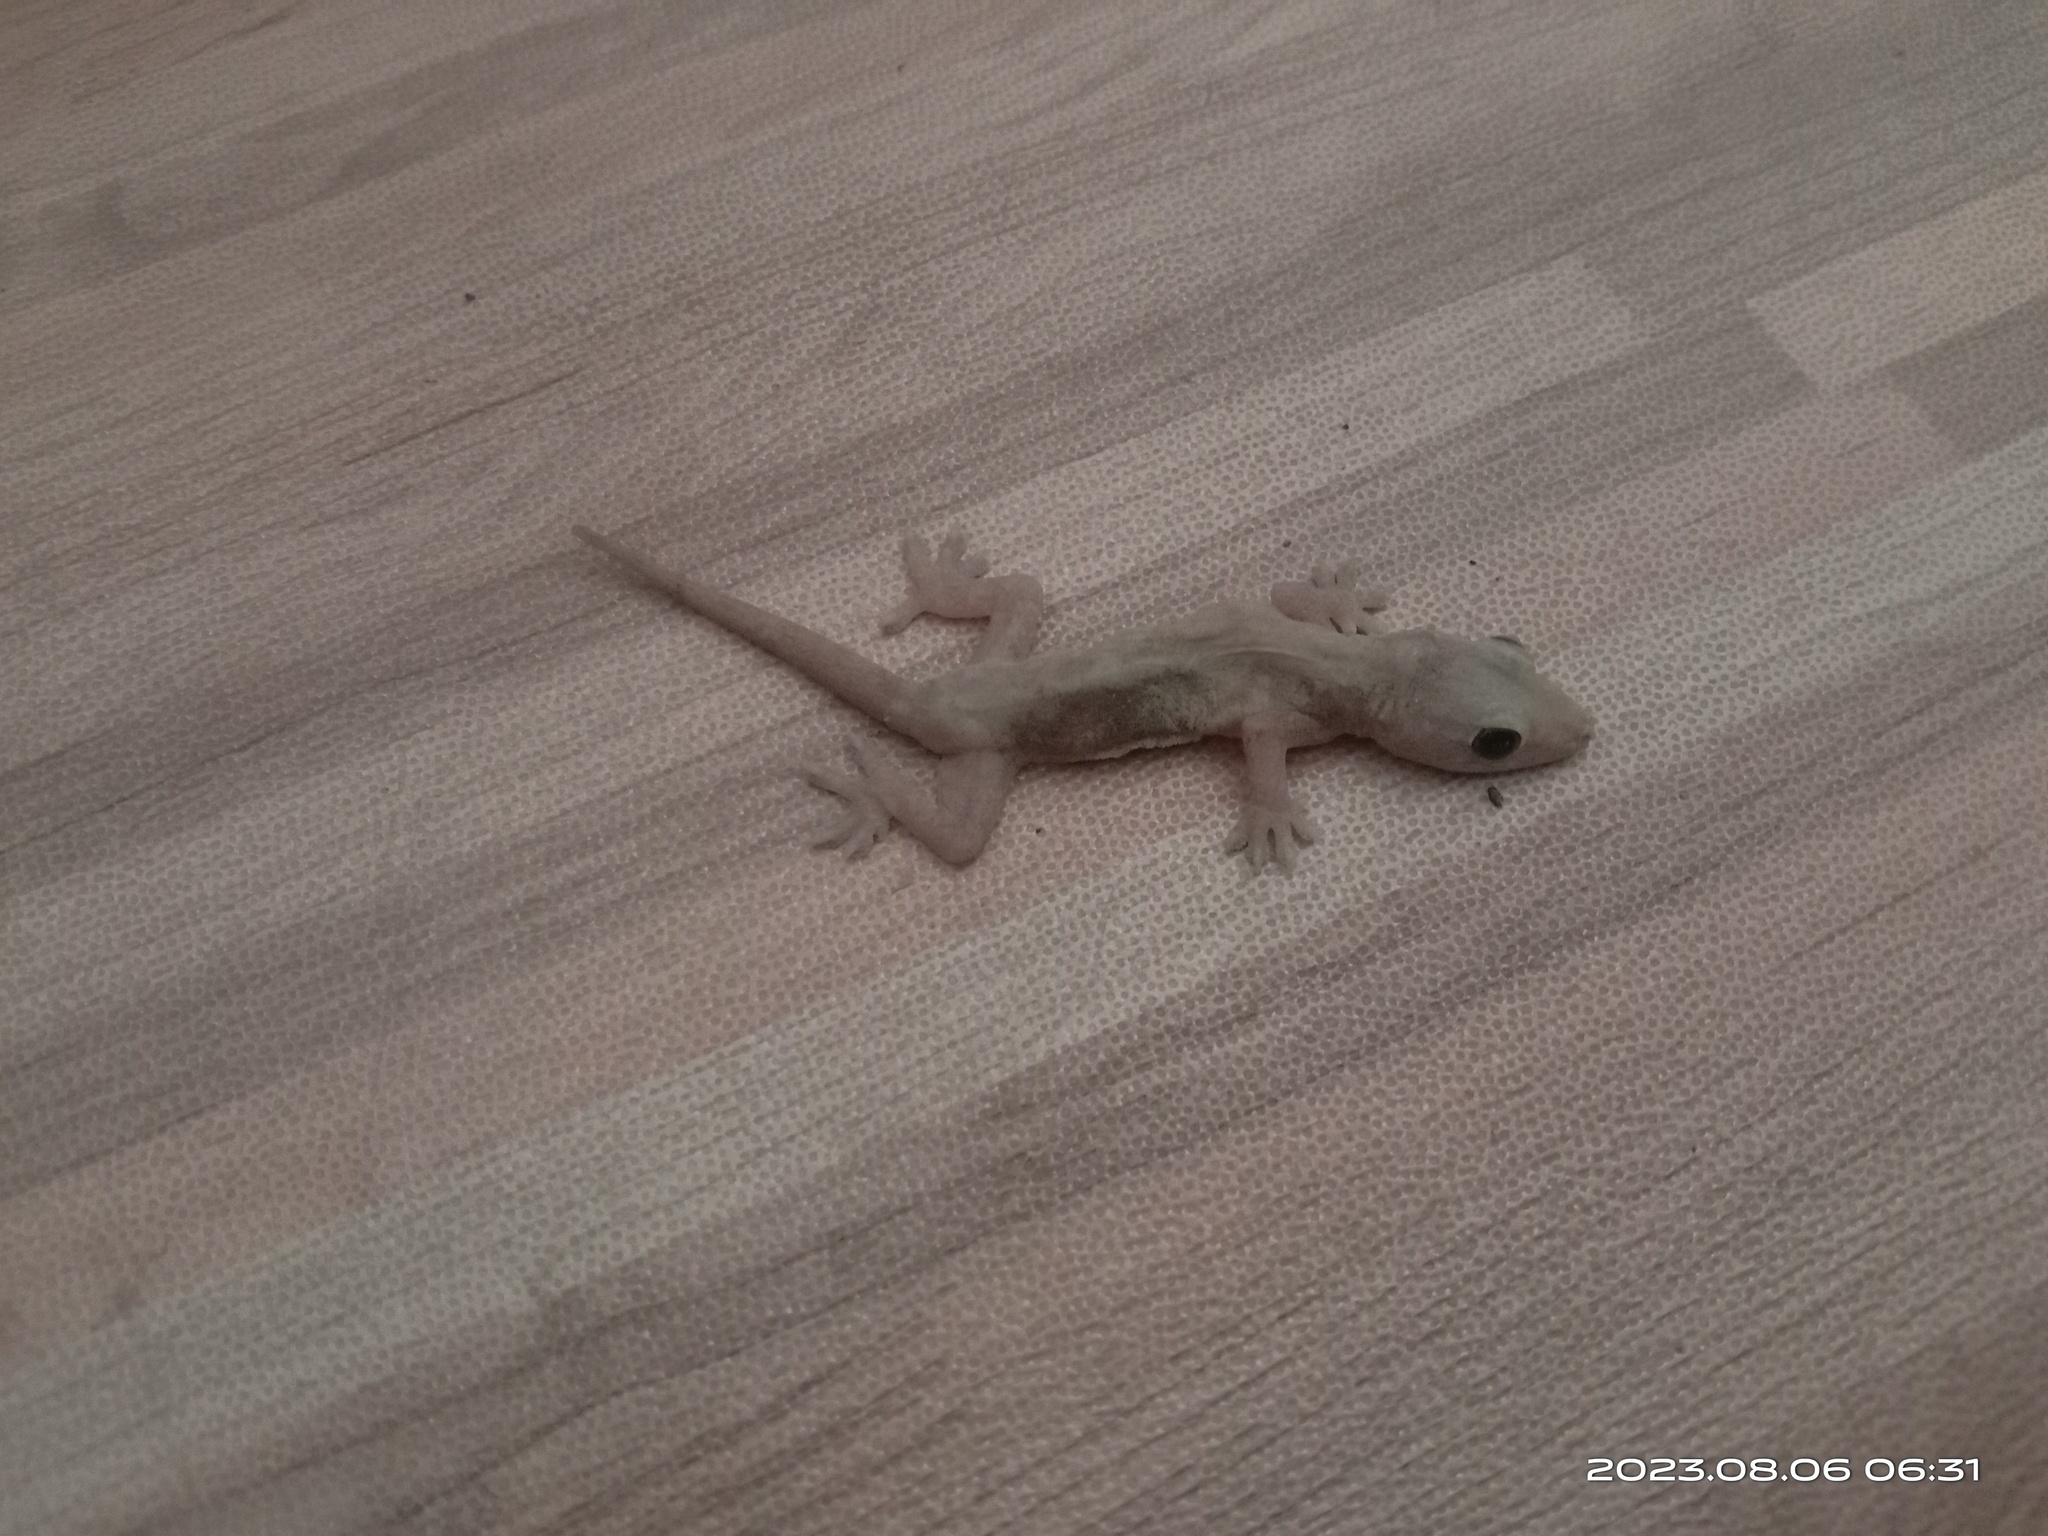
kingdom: Animalia
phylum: Chordata
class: Squamata
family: Gekkonidae
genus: Hemidactylus
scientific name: Hemidactylus frenatus
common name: Common house gecko
